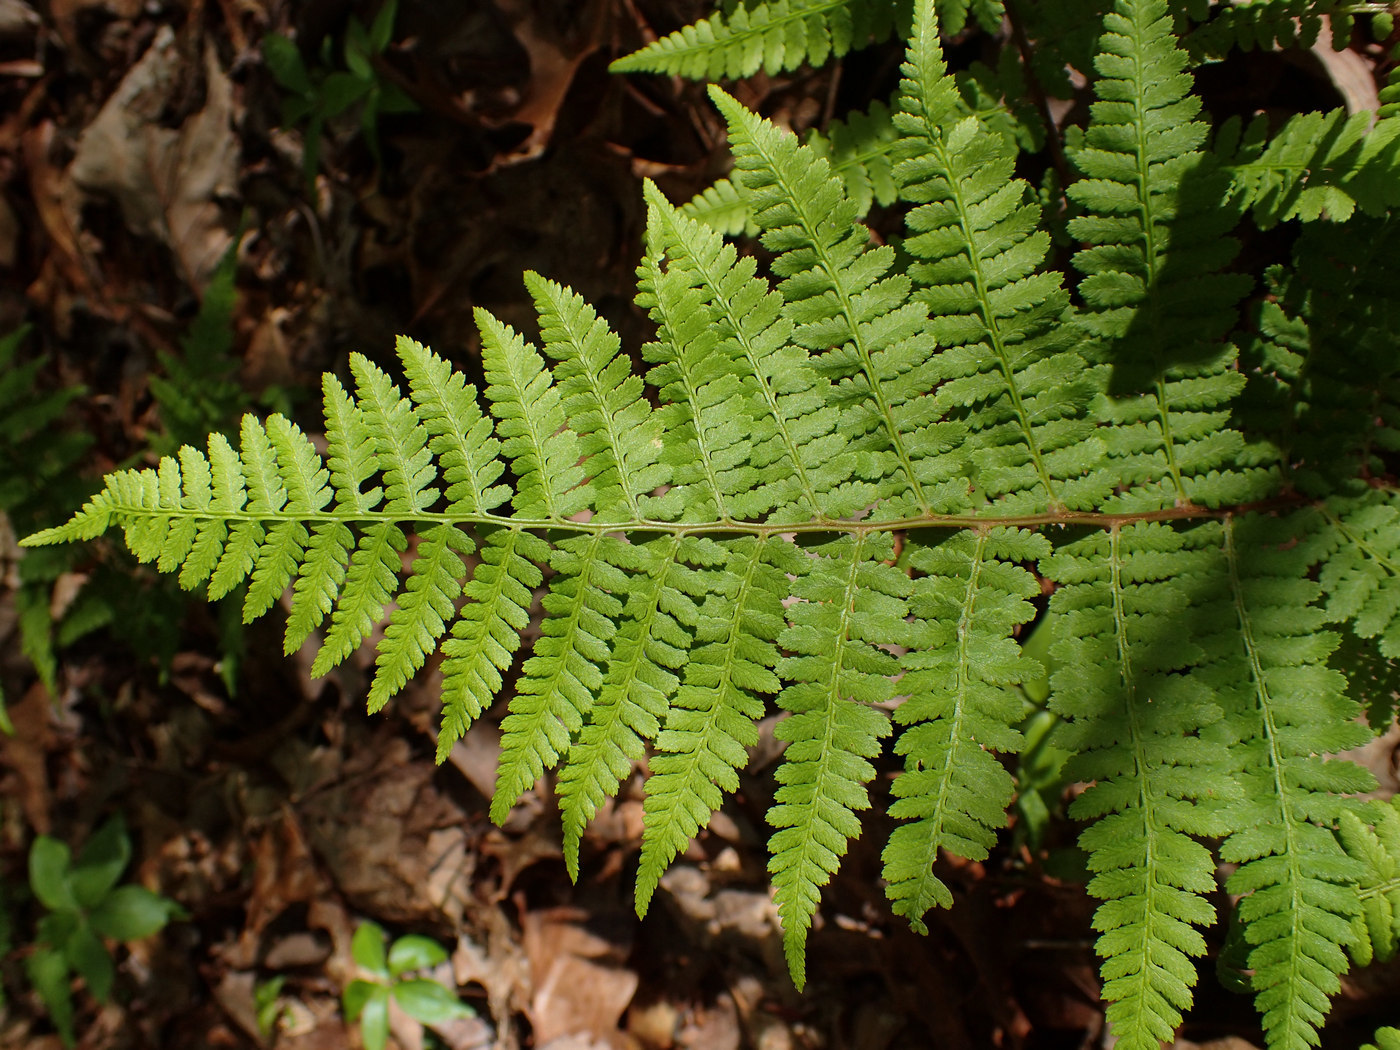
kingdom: Plantae
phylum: Tracheophyta
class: Polypodiopsida
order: Polypodiales
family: Athyriaceae
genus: Athyrium
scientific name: Athyrium asplenioides
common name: Southern lady fern
